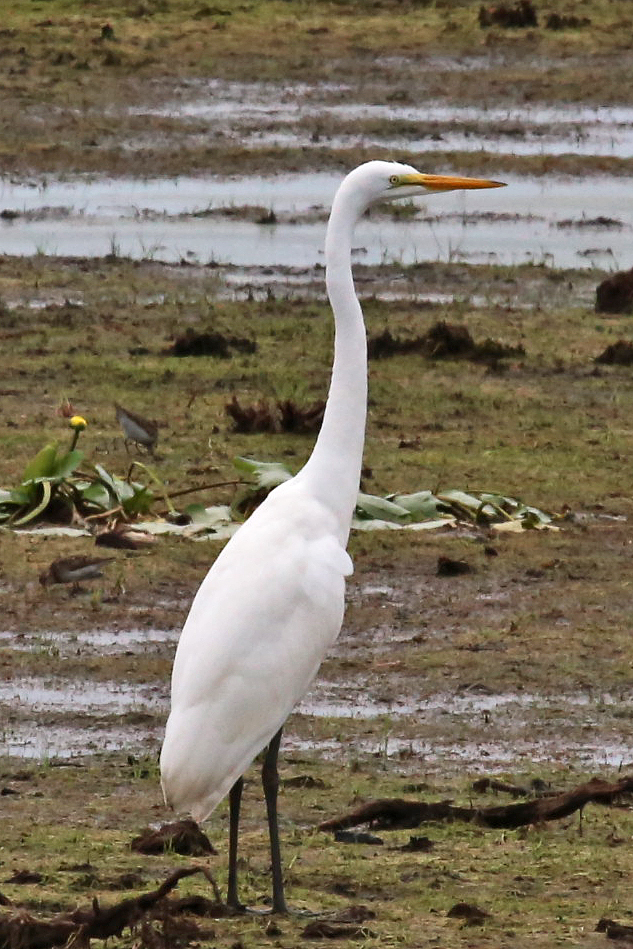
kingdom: Animalia
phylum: Chordata
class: Aves
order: Pelecaniformes
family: Ardeidae
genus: Ardea
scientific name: Ardea alba
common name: Great egret
